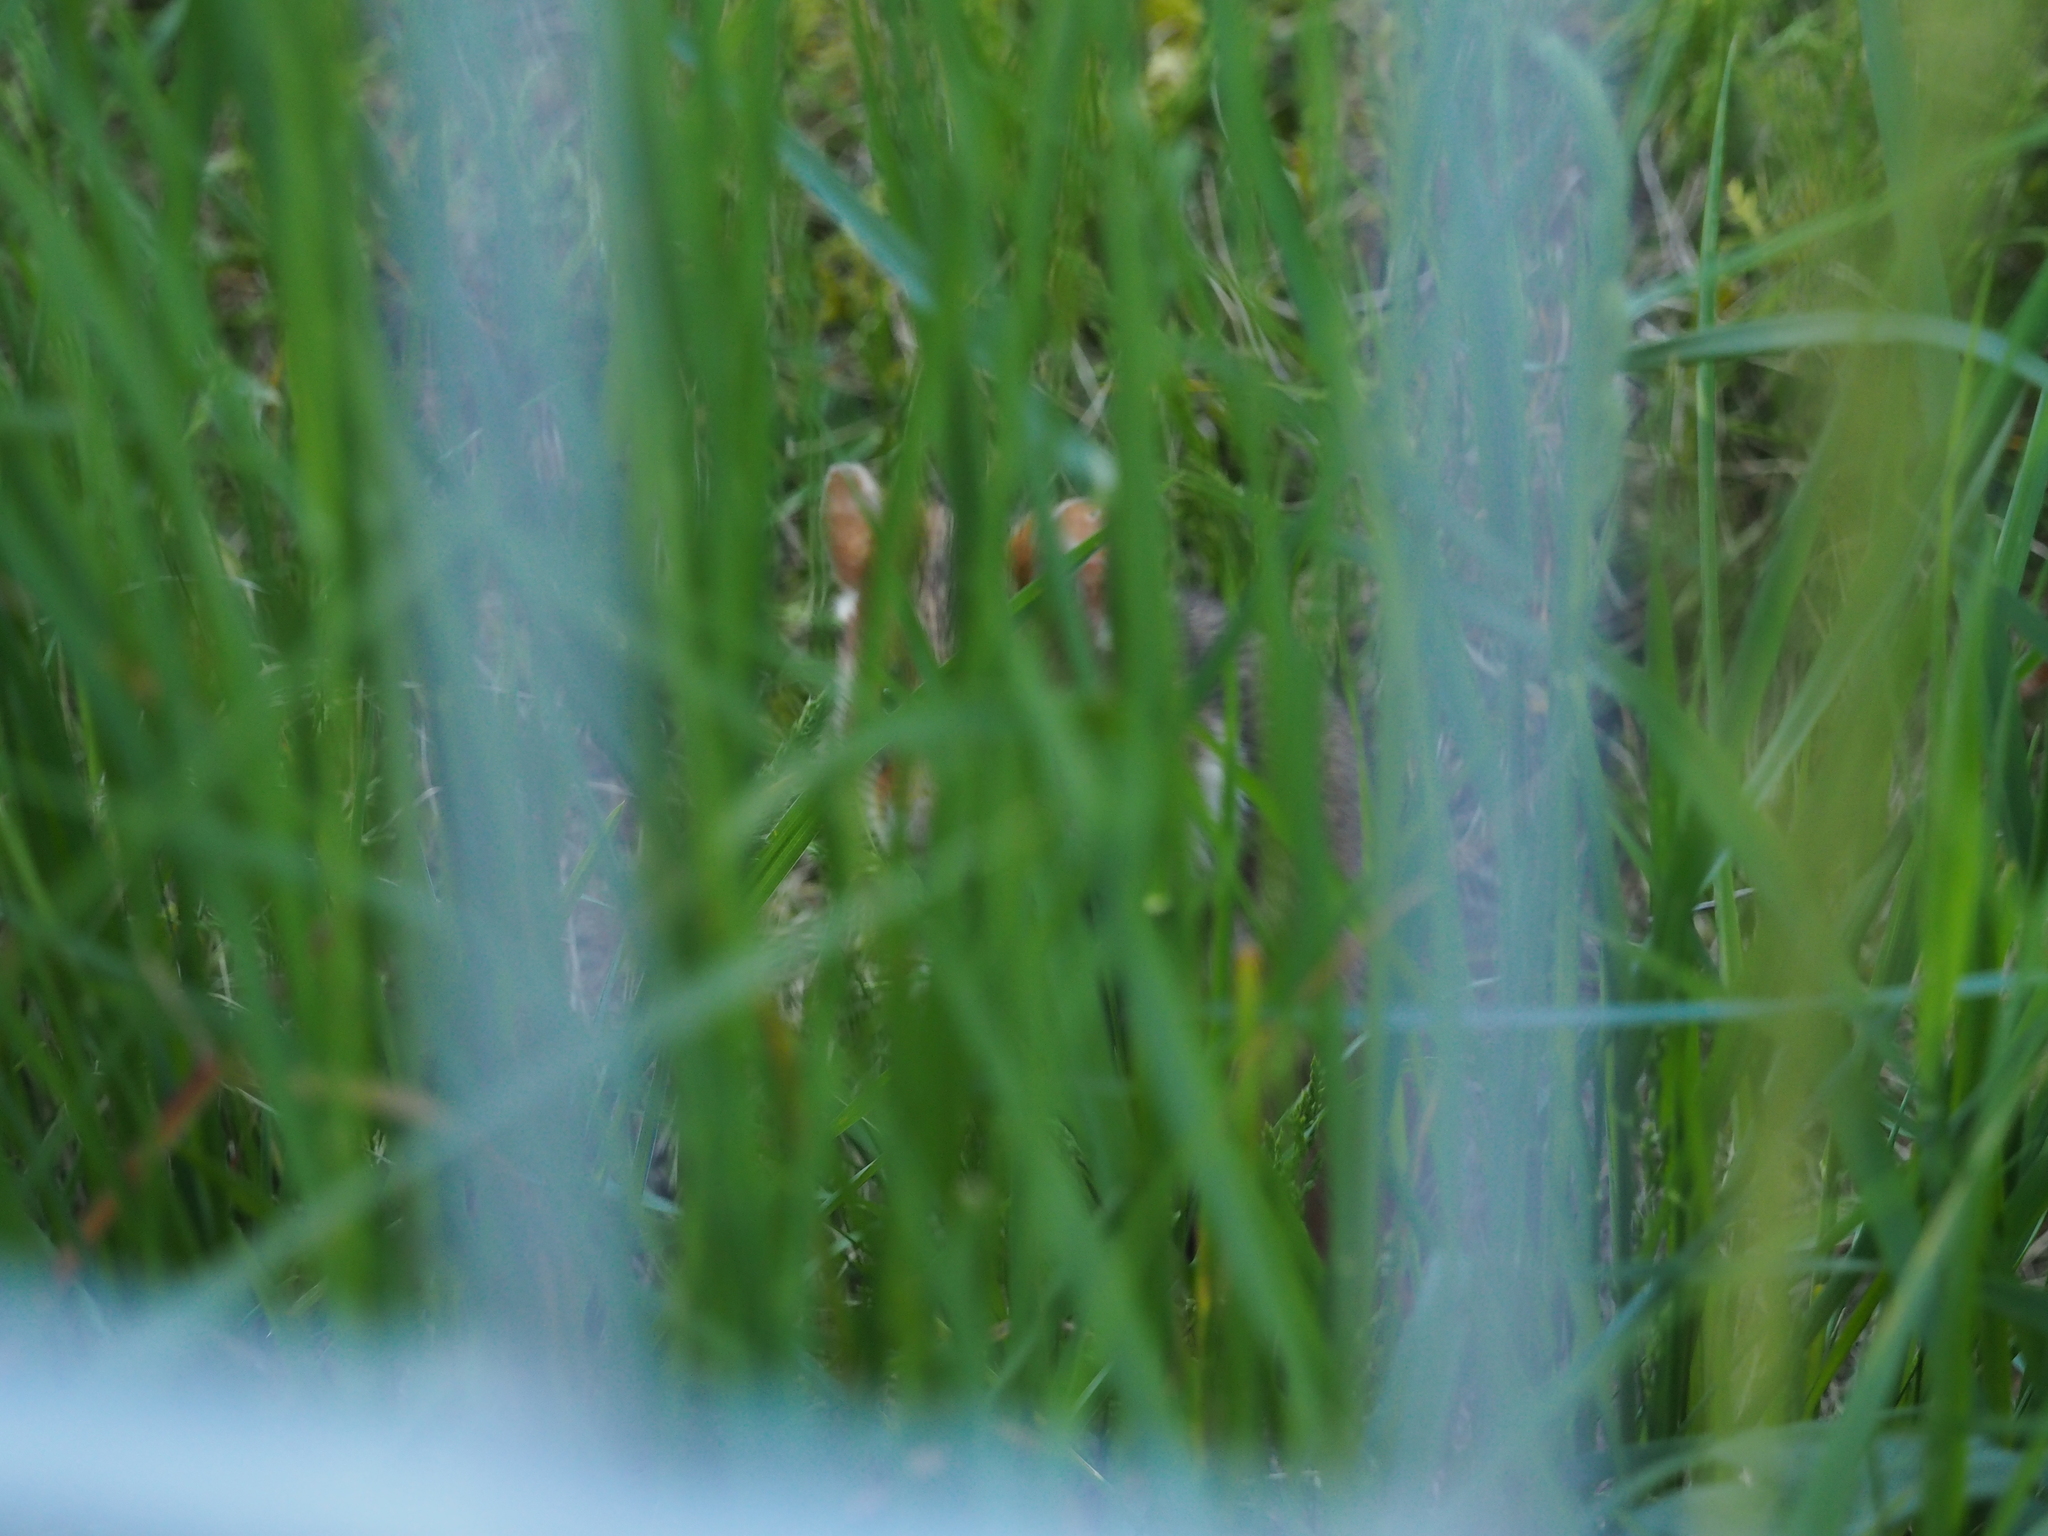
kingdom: Animalia
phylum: Chordata
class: Mammalia
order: Rodentia
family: Cricetidae
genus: Cricetus
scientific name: Cricetus cricetus
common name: Common hamster
